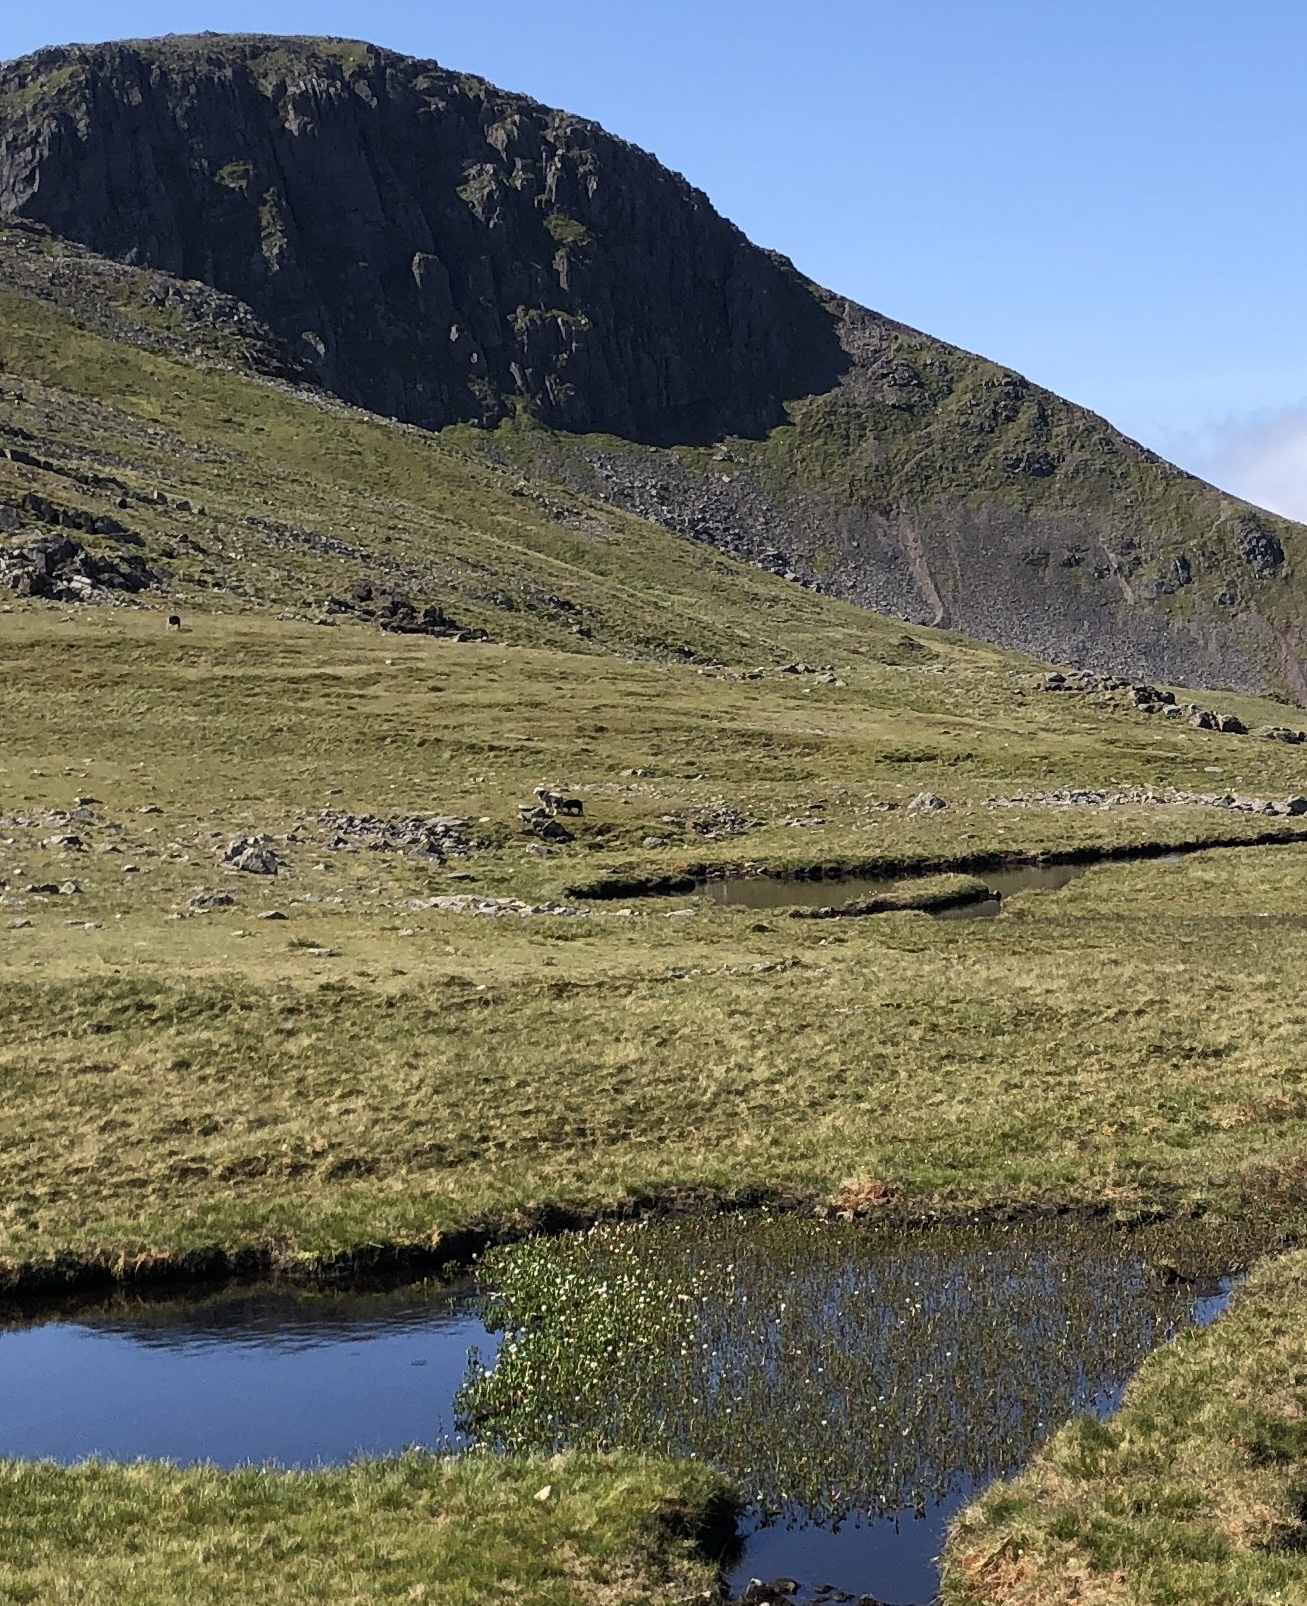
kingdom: Plantae
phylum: Tracheophyta
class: Magnoliopsida
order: Asterales
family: Menyanthaceae
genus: Menyanthes
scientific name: Menyanthes trifoliata
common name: Bogbean
